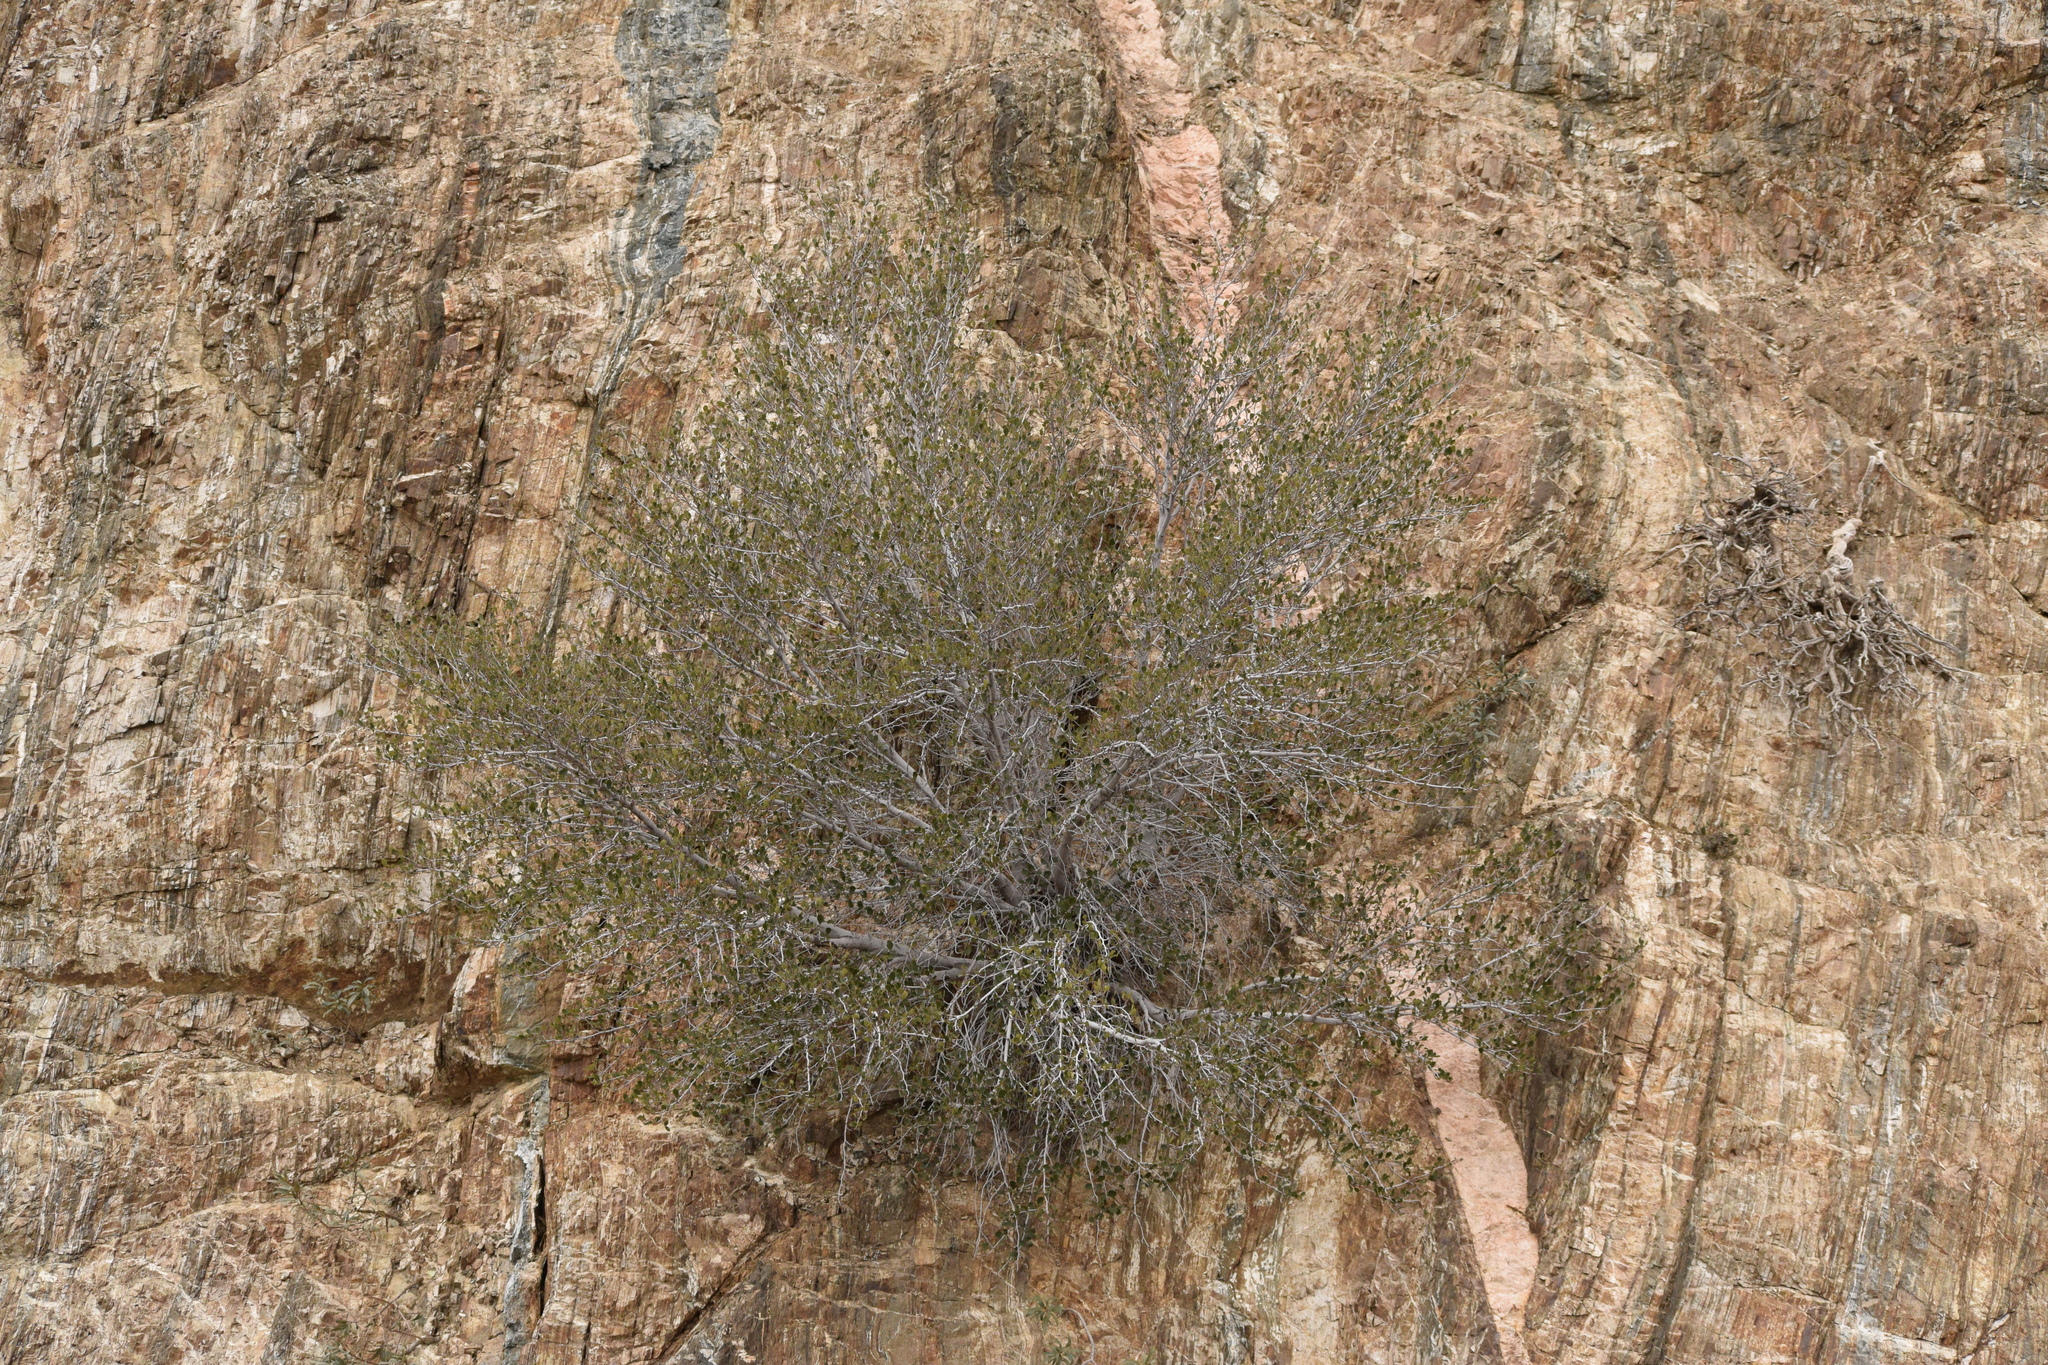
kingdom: Plantae
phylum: Tracheophyta
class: Magnoliopsida
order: Rosales
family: Rosaceae
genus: Cercocarpus
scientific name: Cercocarpus betuloides
